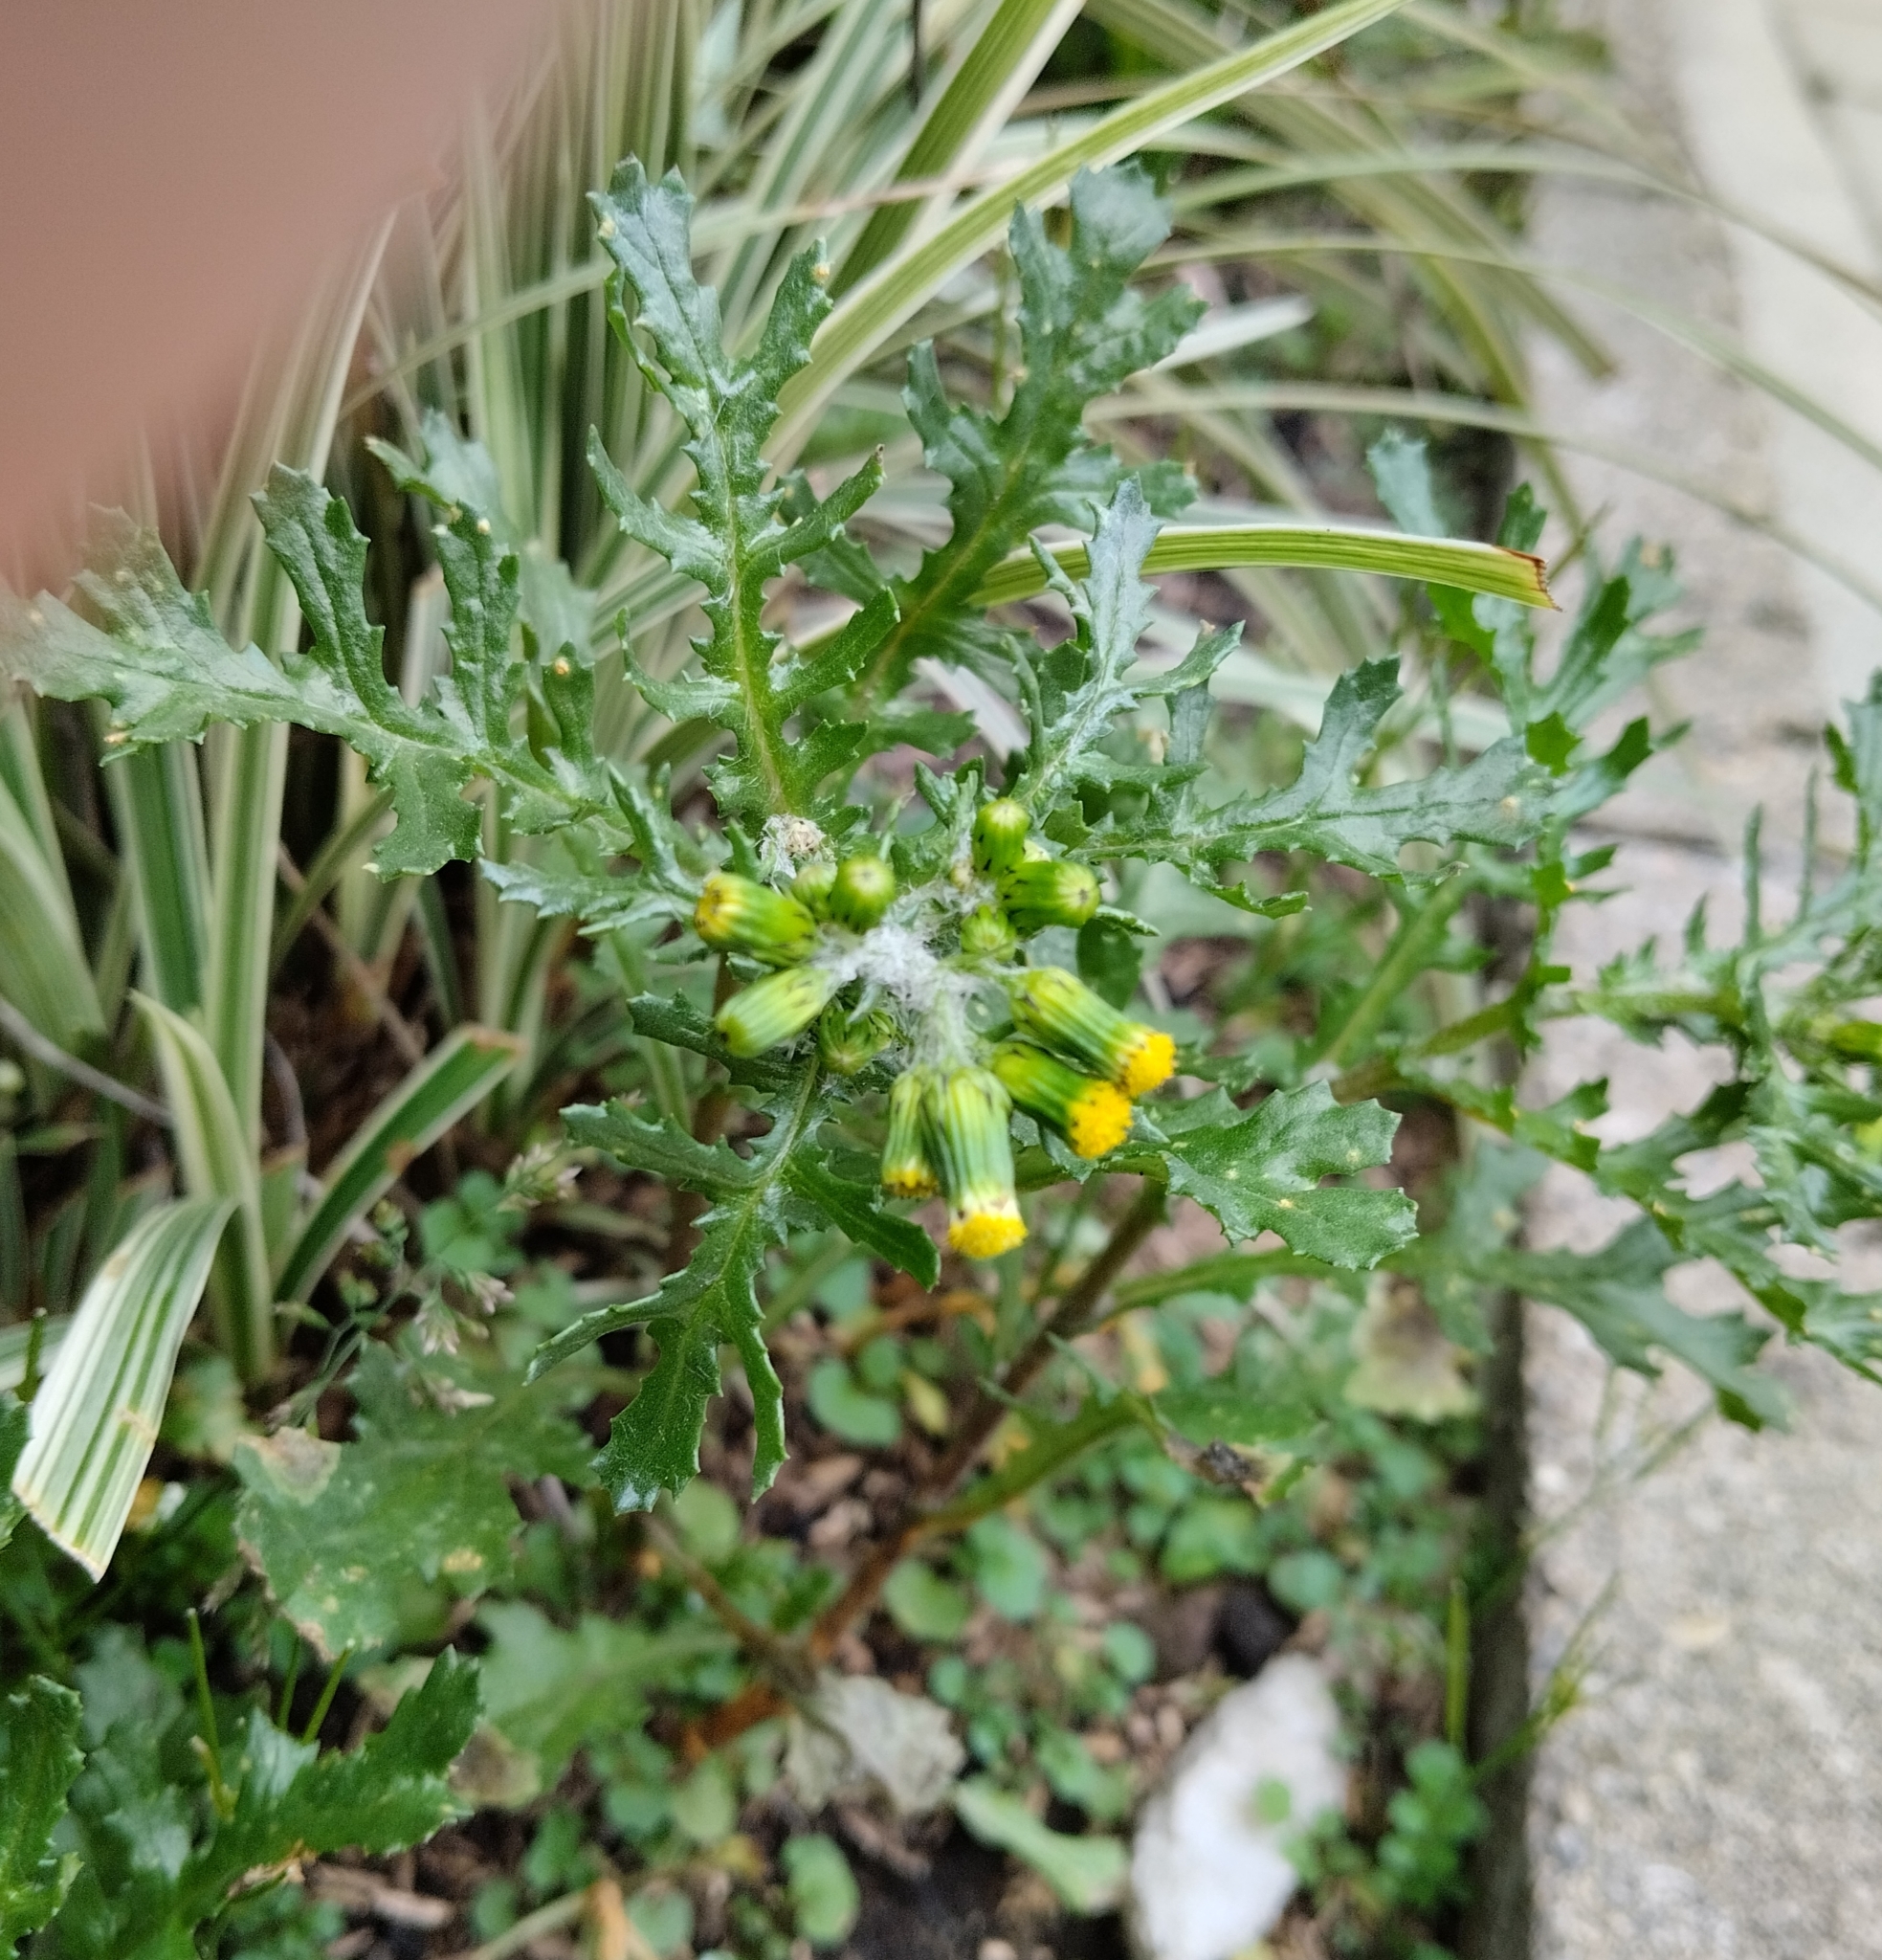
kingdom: Plantae
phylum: Tracheophyta
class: Magnoliopsida
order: Asterales
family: Asteraceae
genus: Senecio
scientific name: Senecio vulgaris
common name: Old-man-in-the-spring
